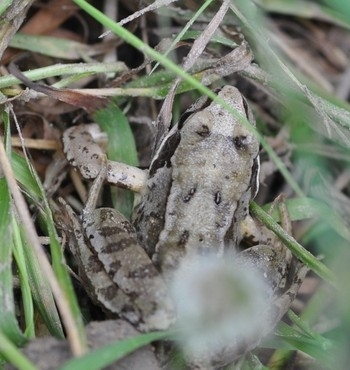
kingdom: Animalia
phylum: Chordata
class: Amphibia
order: Anura
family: Ranidae
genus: Rana
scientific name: Rana temporaria
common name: Common frog
